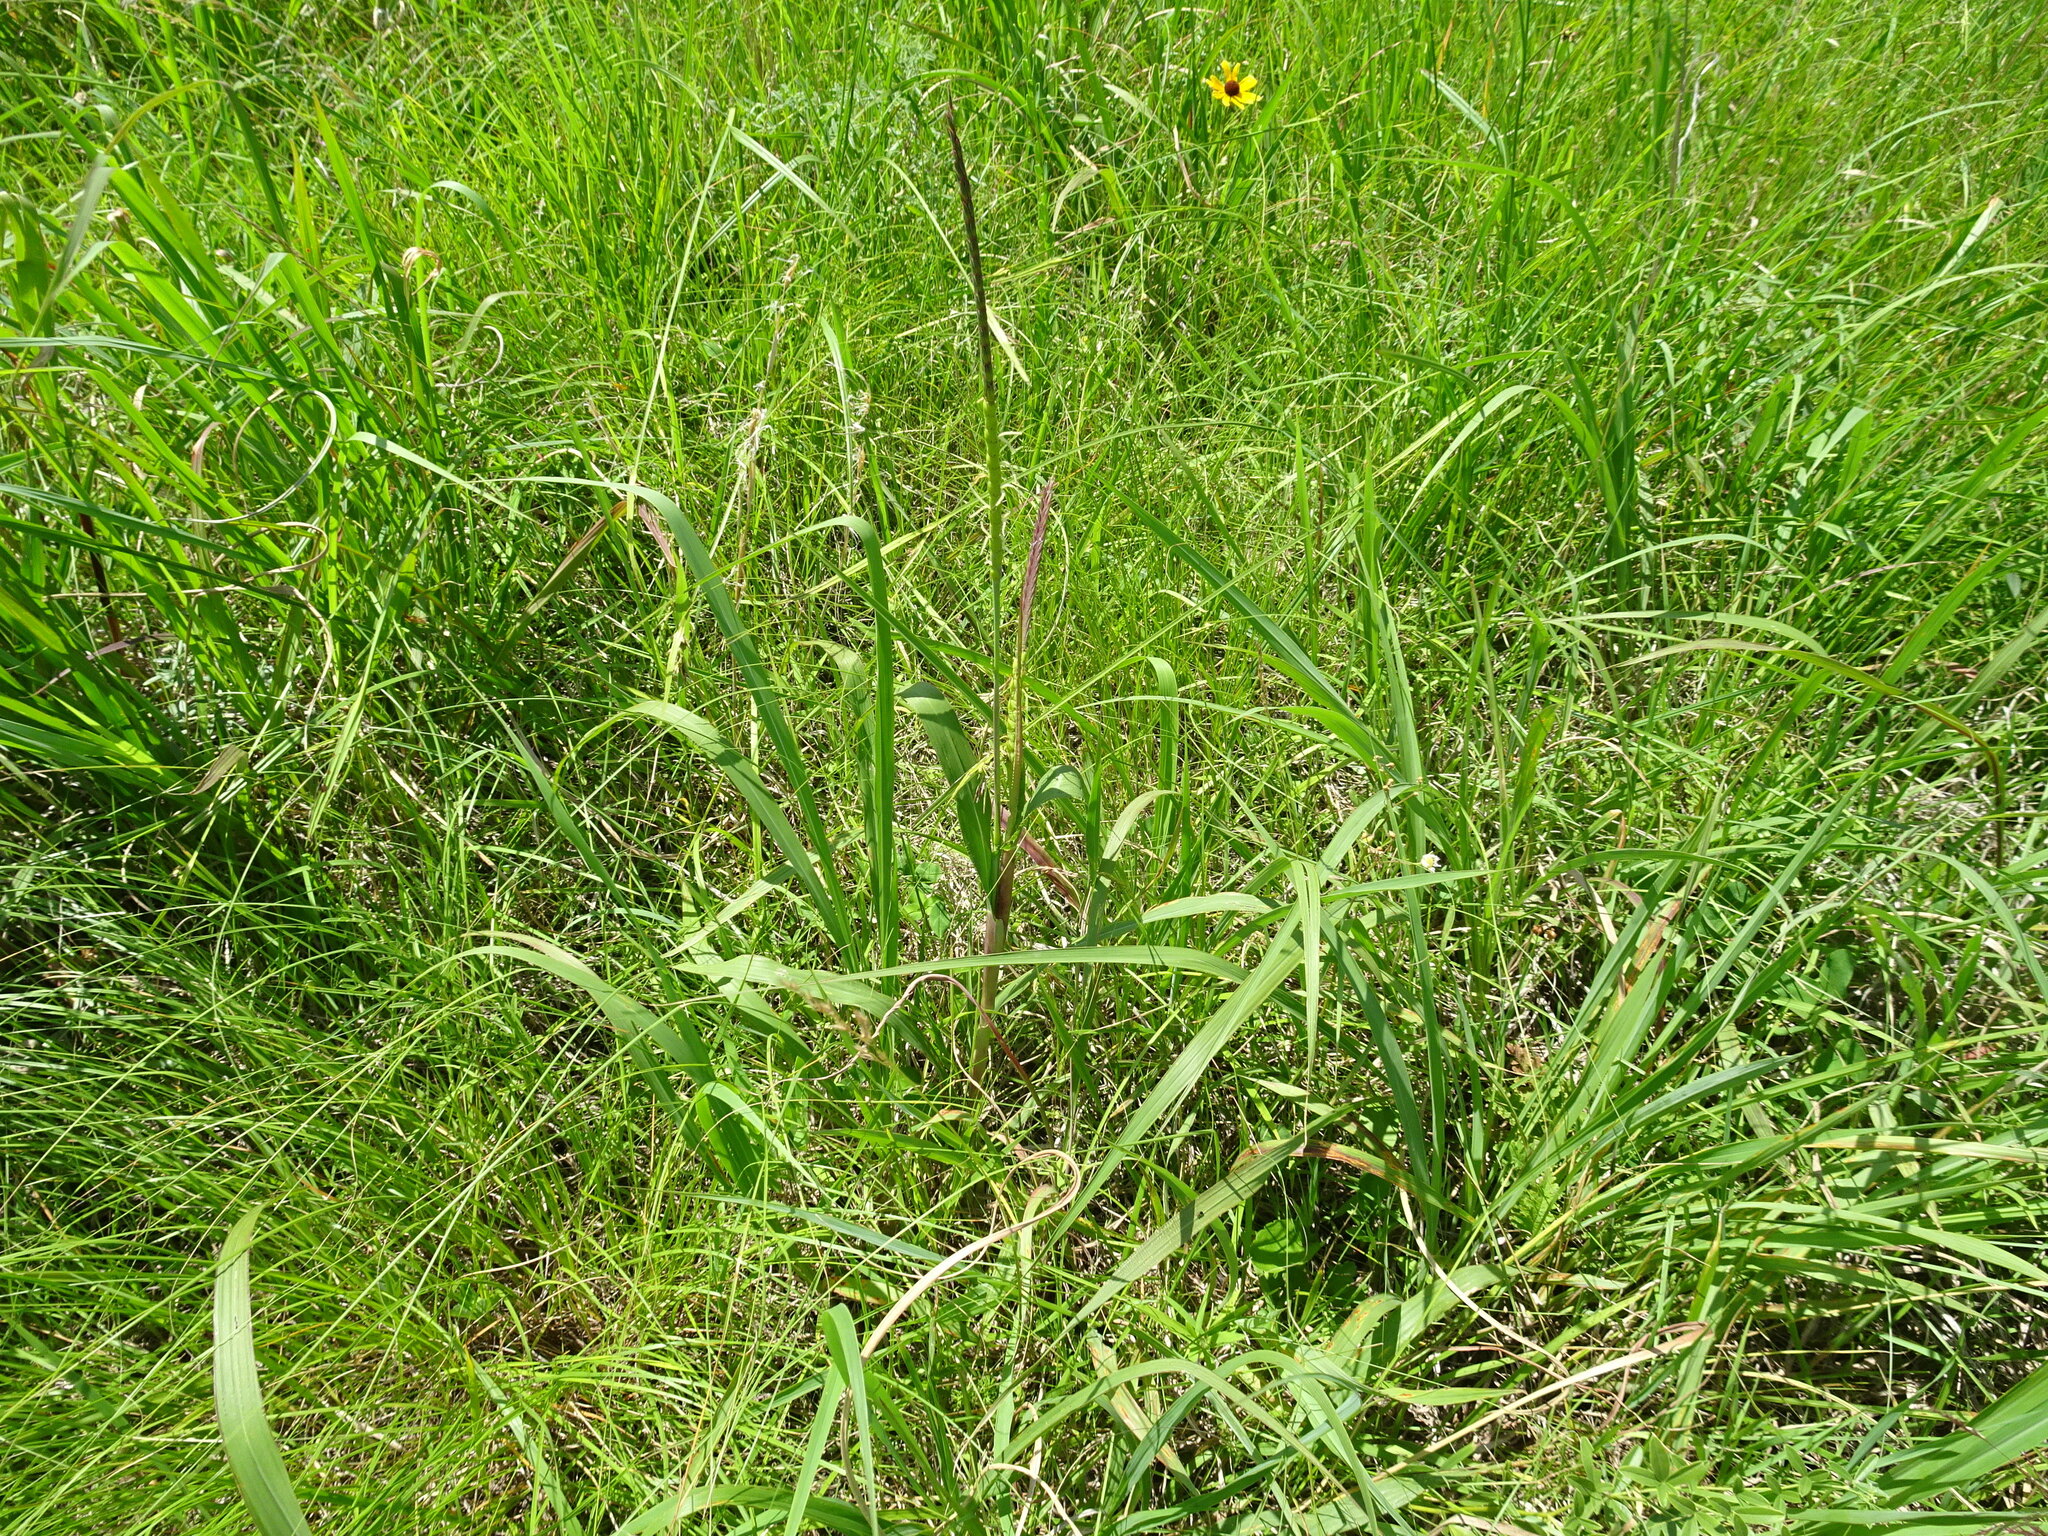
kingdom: Plantae
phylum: Tracheophyta
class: Liliopsida
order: Poales
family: Poaceae
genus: Tripsacum
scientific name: Tripsacum dactyloides
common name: Buffalo-grass
